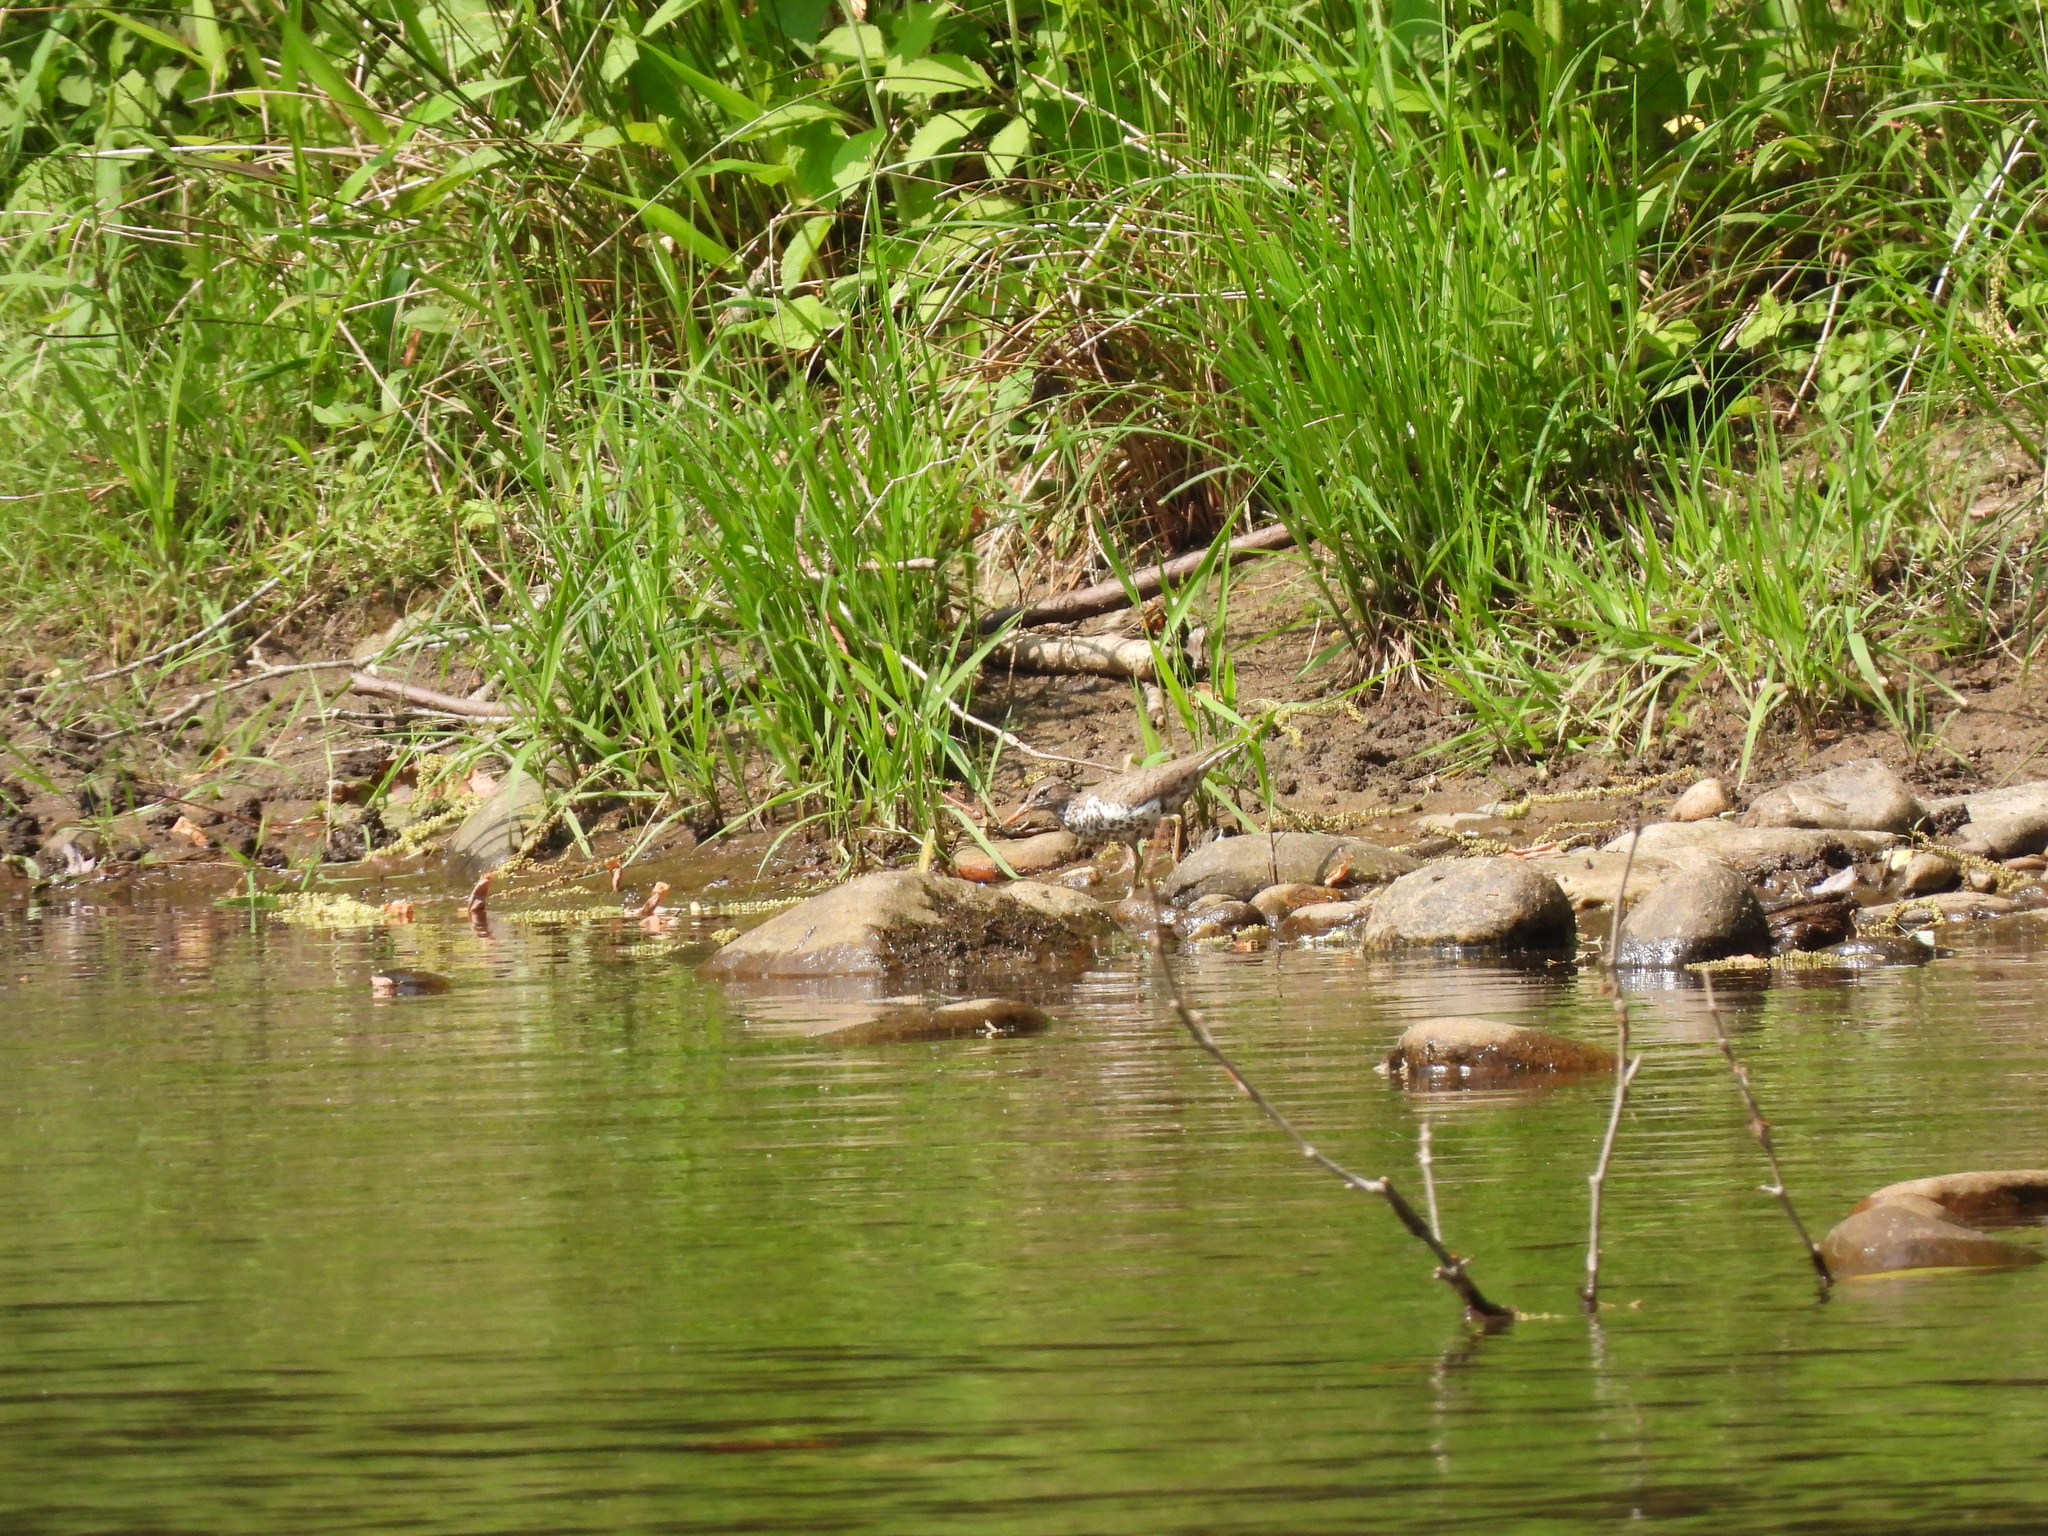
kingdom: Animalia
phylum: Chordata
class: Aves
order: Charadriiformes
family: Scolopacidae
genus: Actitis
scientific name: Actitis macularius
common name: Spotted sandpiper
